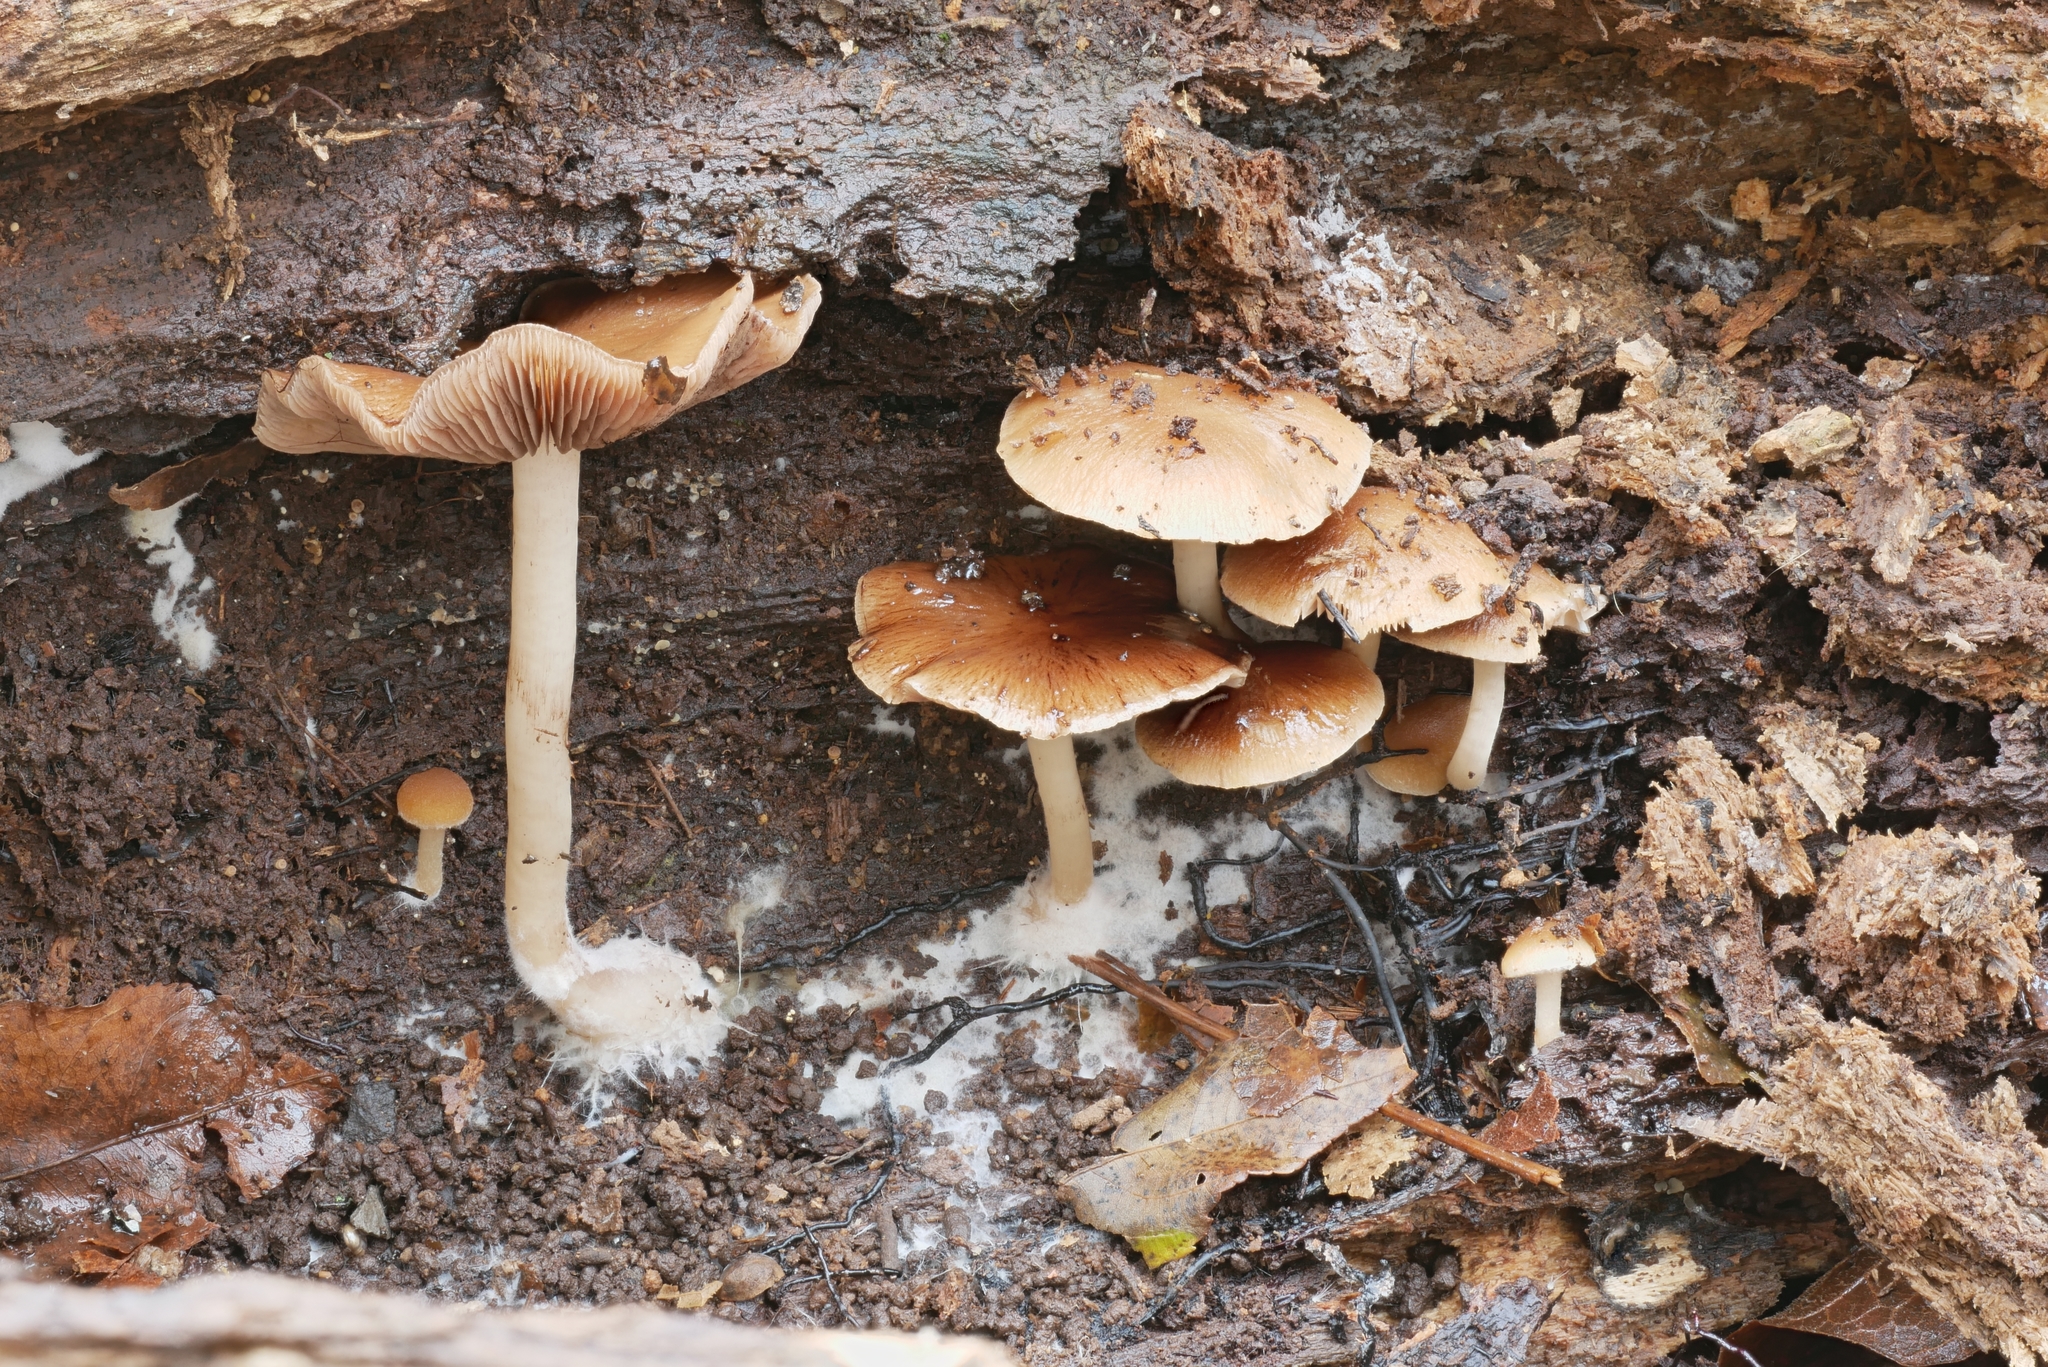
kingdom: Fungi
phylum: Basidiomycota
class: Agaricomycetes
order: Agaricales
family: Psathyrellaceae
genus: Psathyrella
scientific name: Psathyrella piluliformis
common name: Common stump brittlestem
